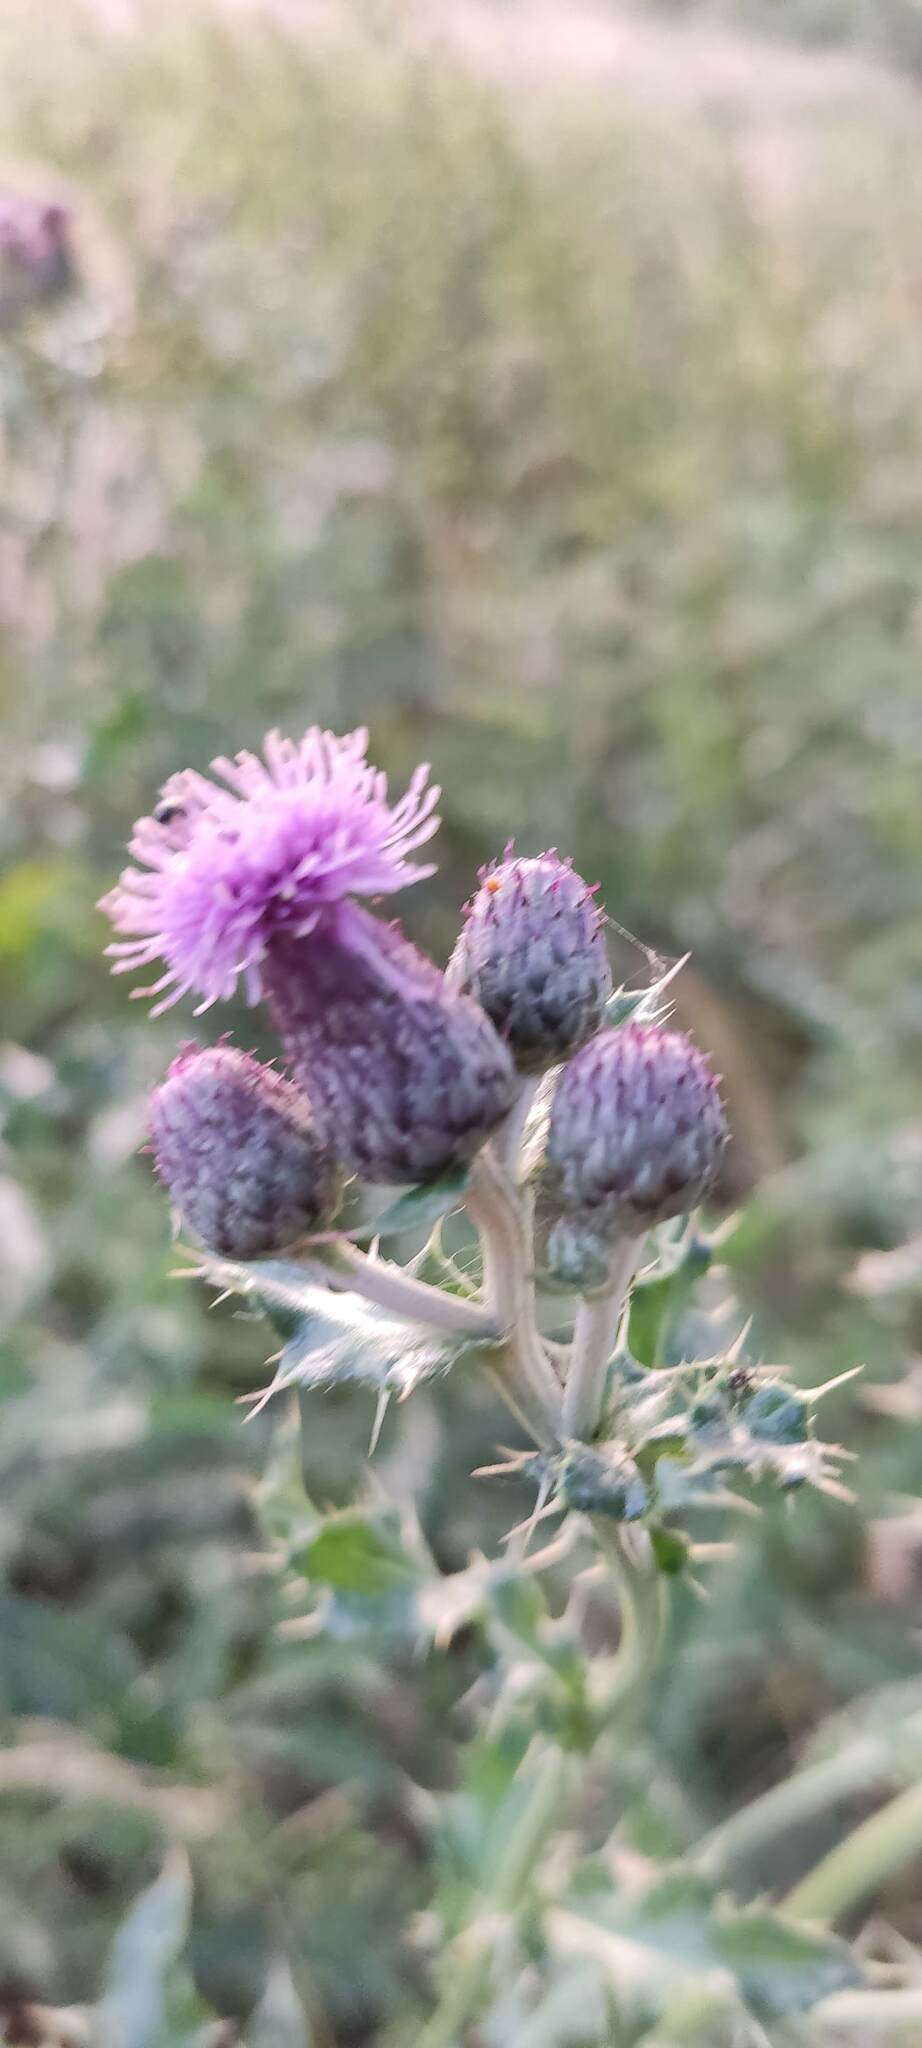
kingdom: Plantae
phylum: Tracheophyta
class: Magnoliopsida
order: Asterales
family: Asteraceae
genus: Cirsium
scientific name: Cirsium arvense
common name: Creeping thistle
